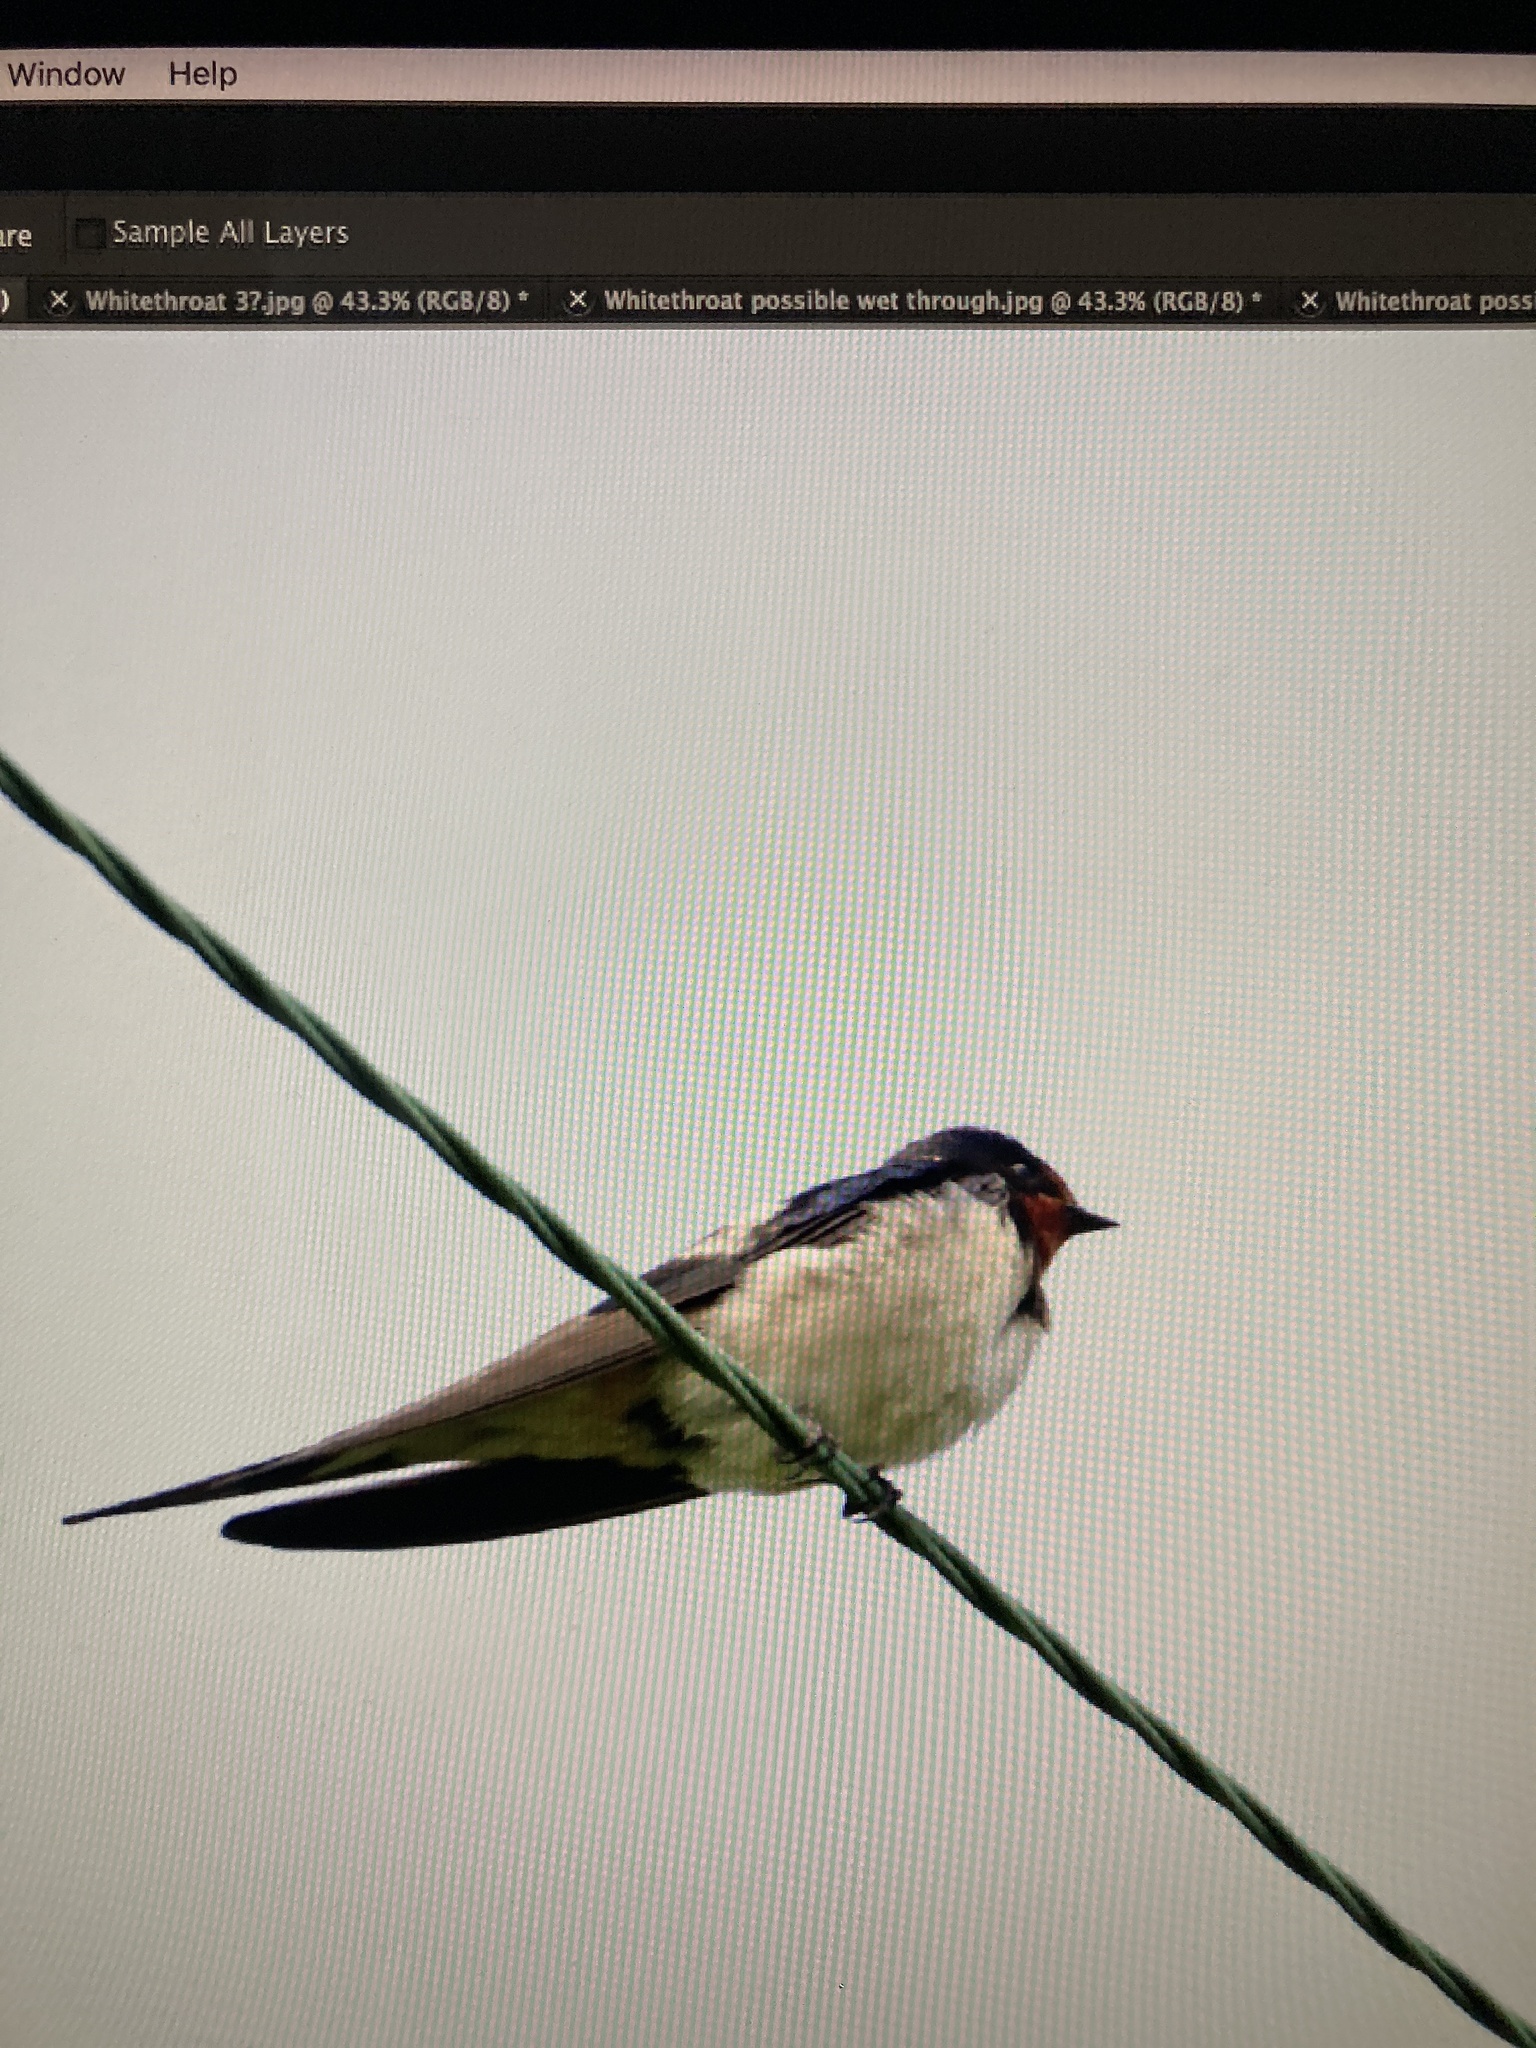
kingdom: Animalia
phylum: Chordata
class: Aves
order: Passeriformes
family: Hirundinidae
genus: Hirundo
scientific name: Hirundo rustica
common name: Barn swallow
